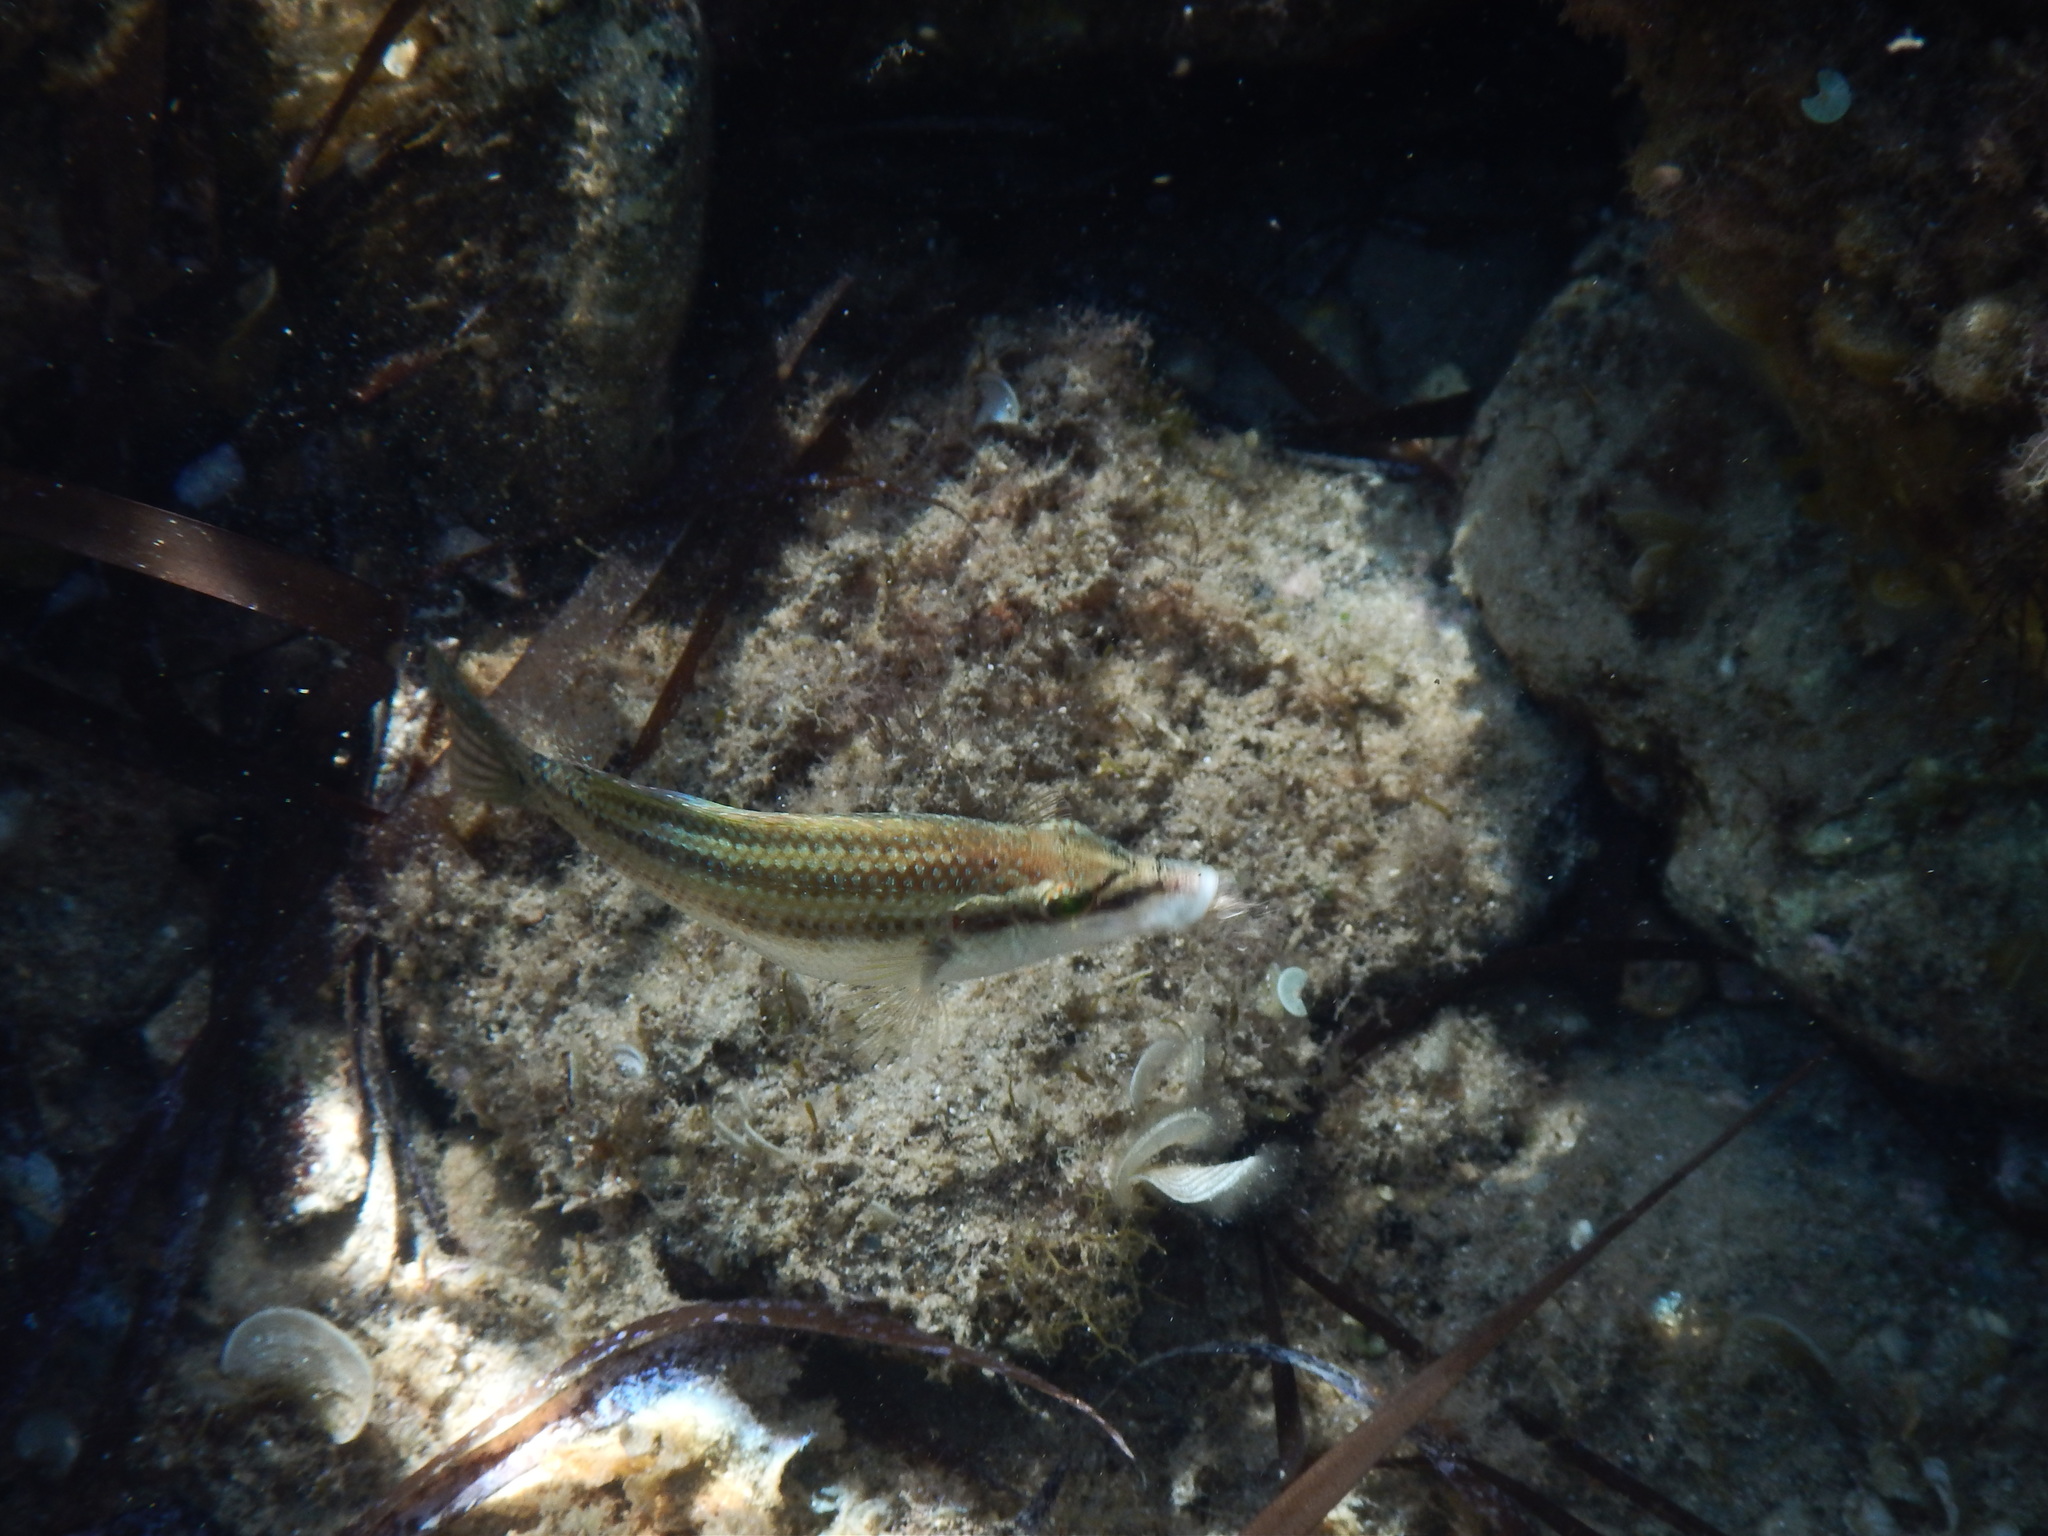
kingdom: Animalia
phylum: Chordata
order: Perciformes
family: Labridae
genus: Symphodus
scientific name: Symphodus tinca
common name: Peacock wrasse
